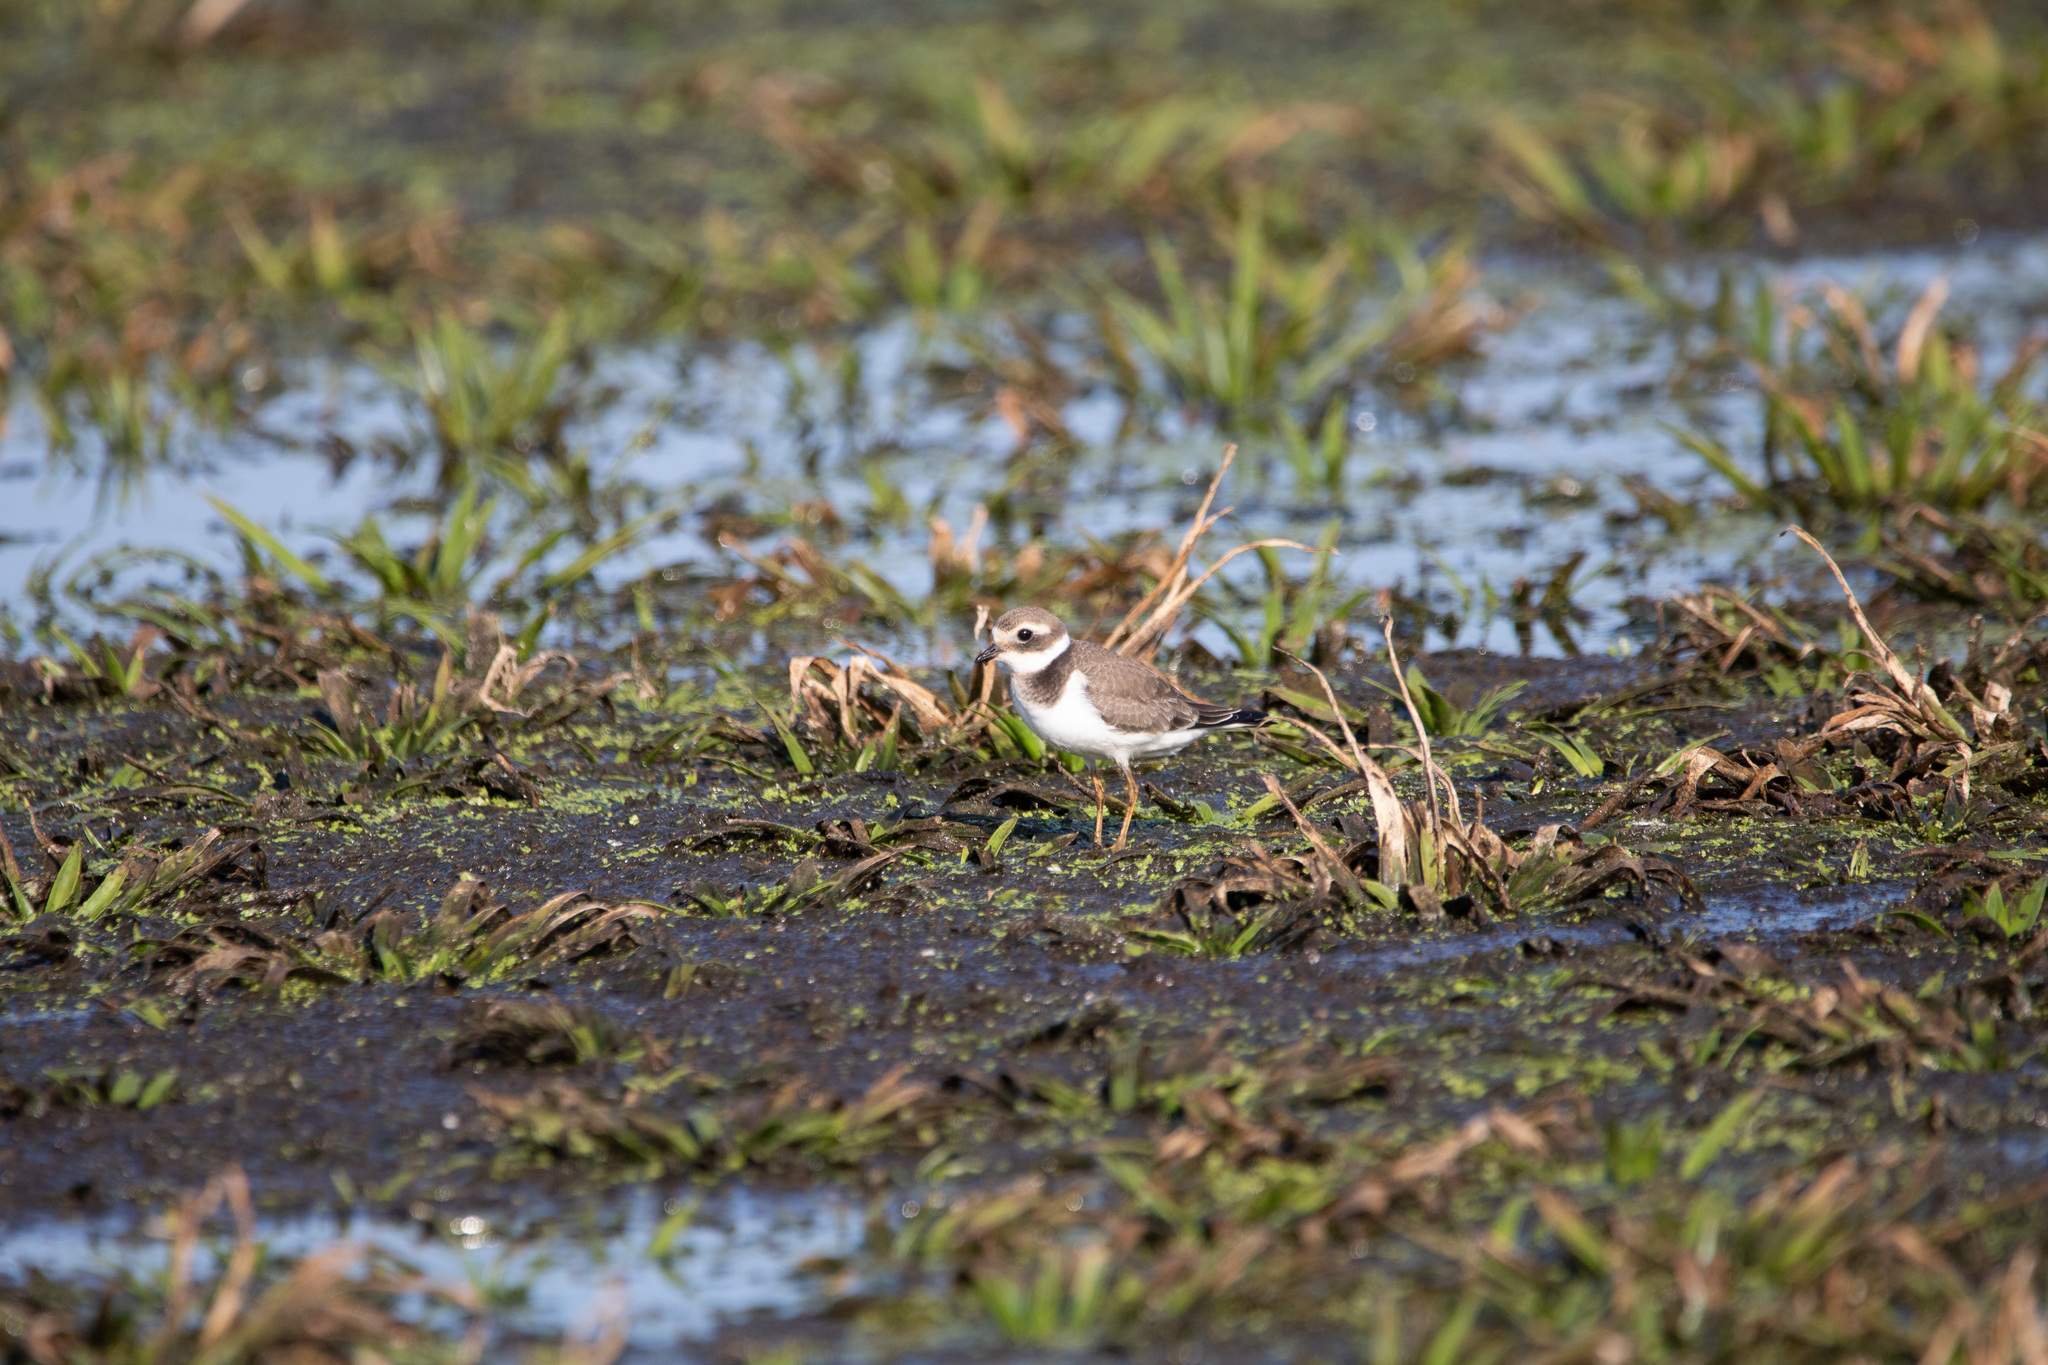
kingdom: Animalia
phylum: Chordata
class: Aves
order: Charadriiformes
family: Charadriidae
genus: Charadrius
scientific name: Charadrius hiaticula
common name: Common ringed plover
